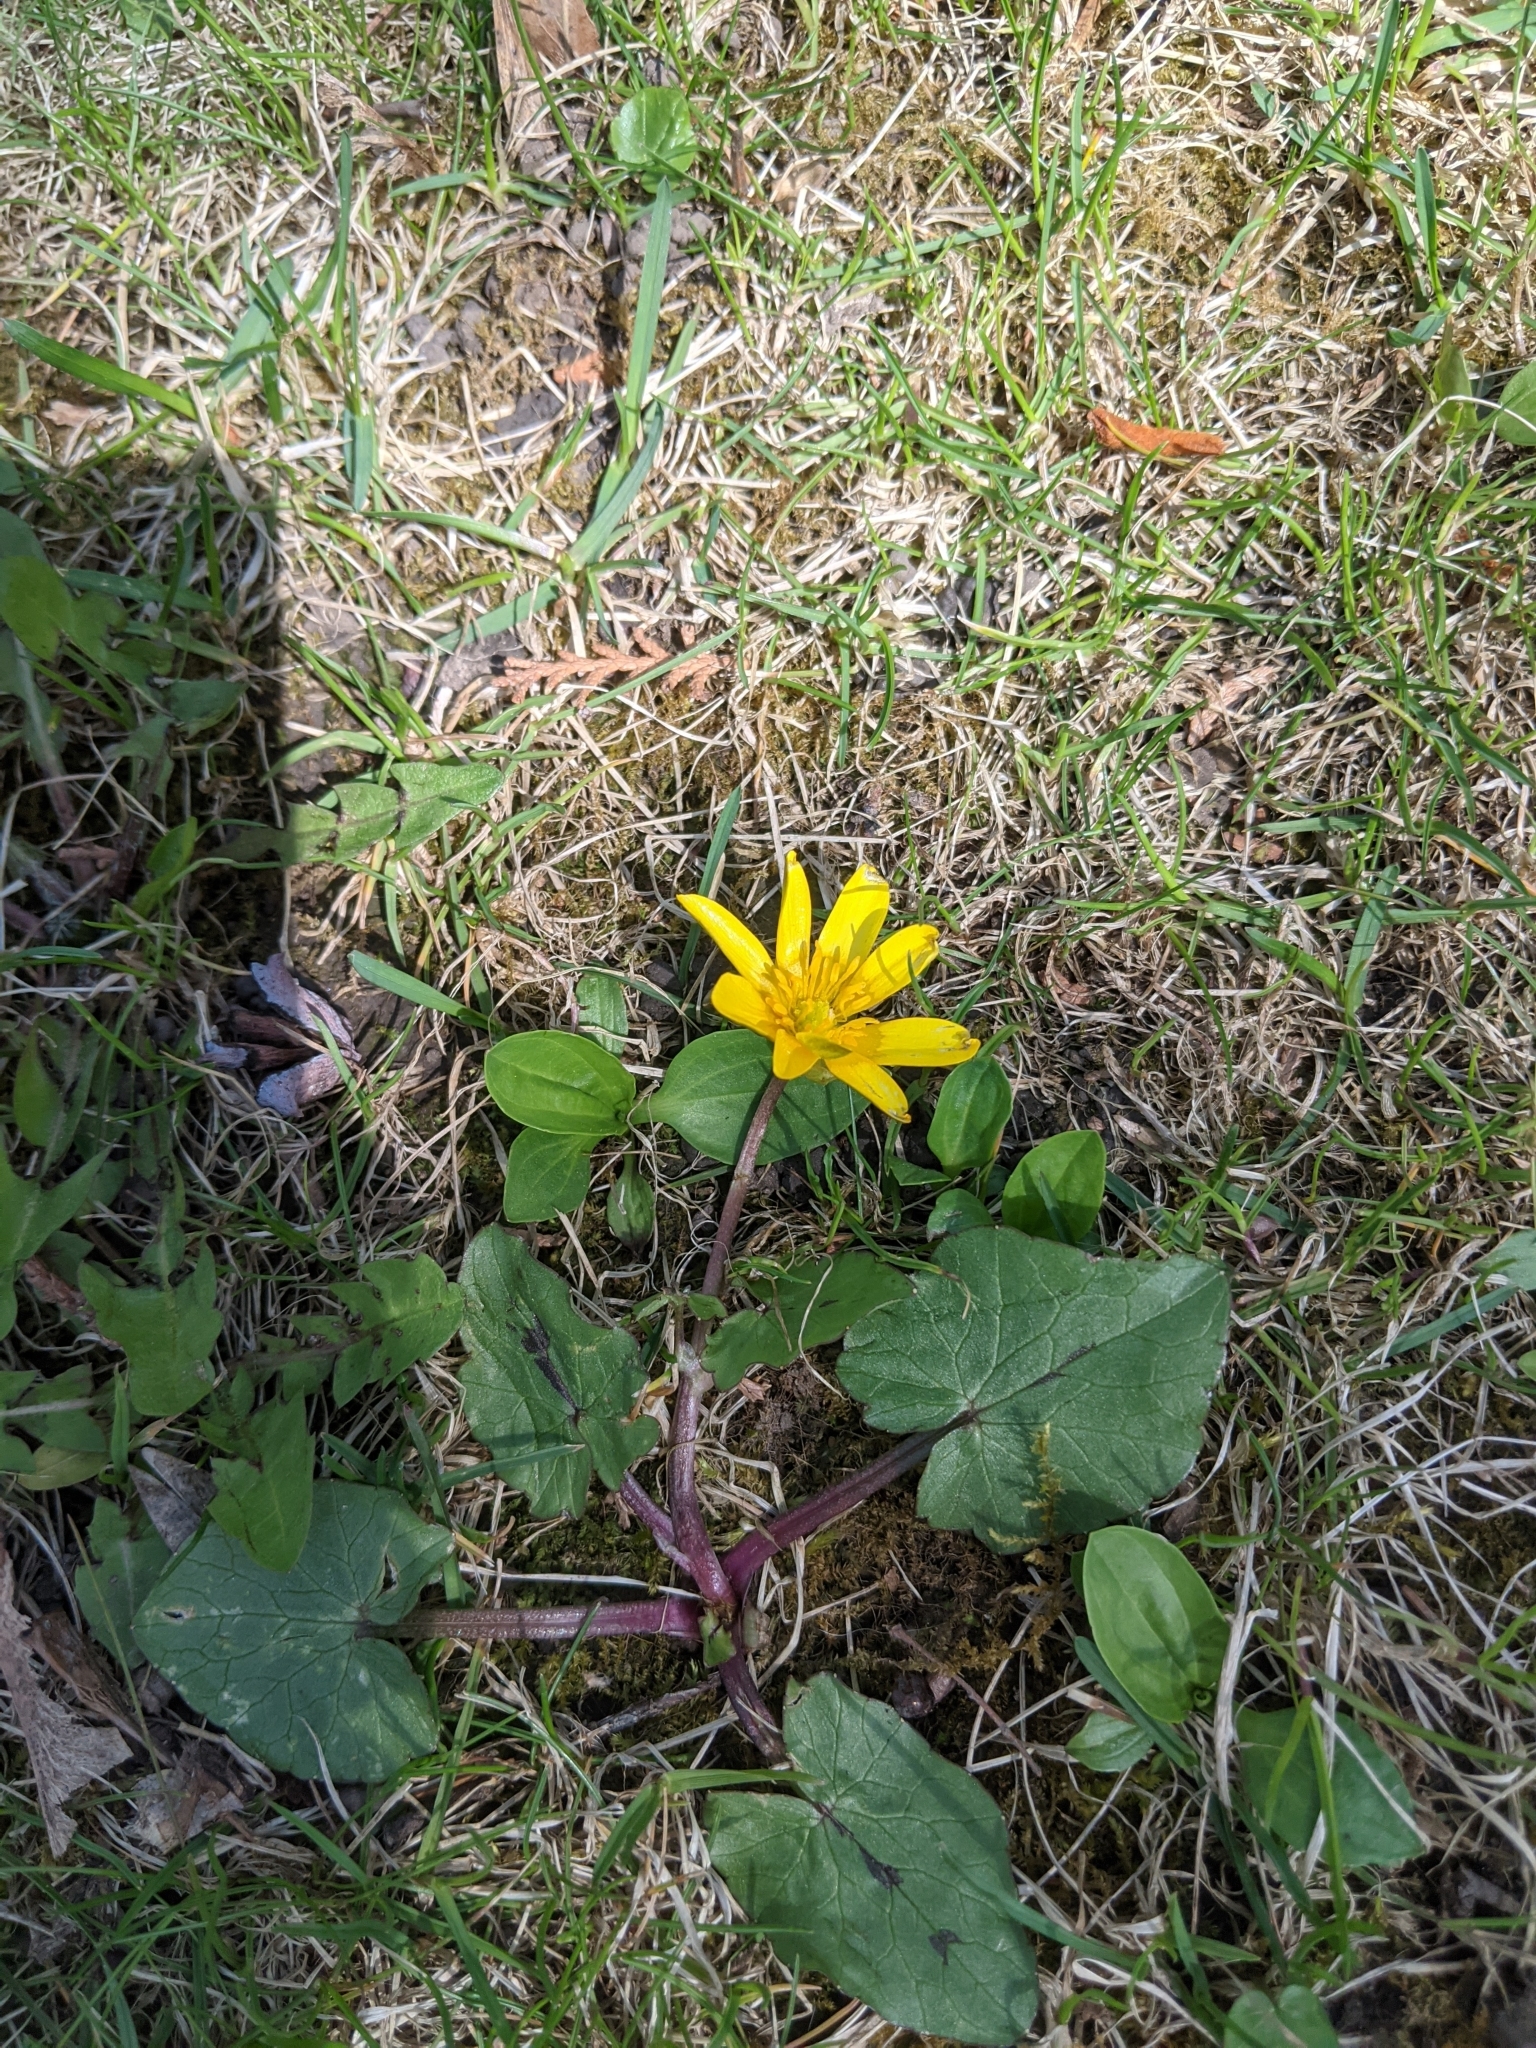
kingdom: Plantae
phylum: Tracheophyta
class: Magnoliopsida
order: Ranunculales
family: Ranunculaceae
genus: Ficaria
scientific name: Ficaria verna
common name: Lesser celandine
